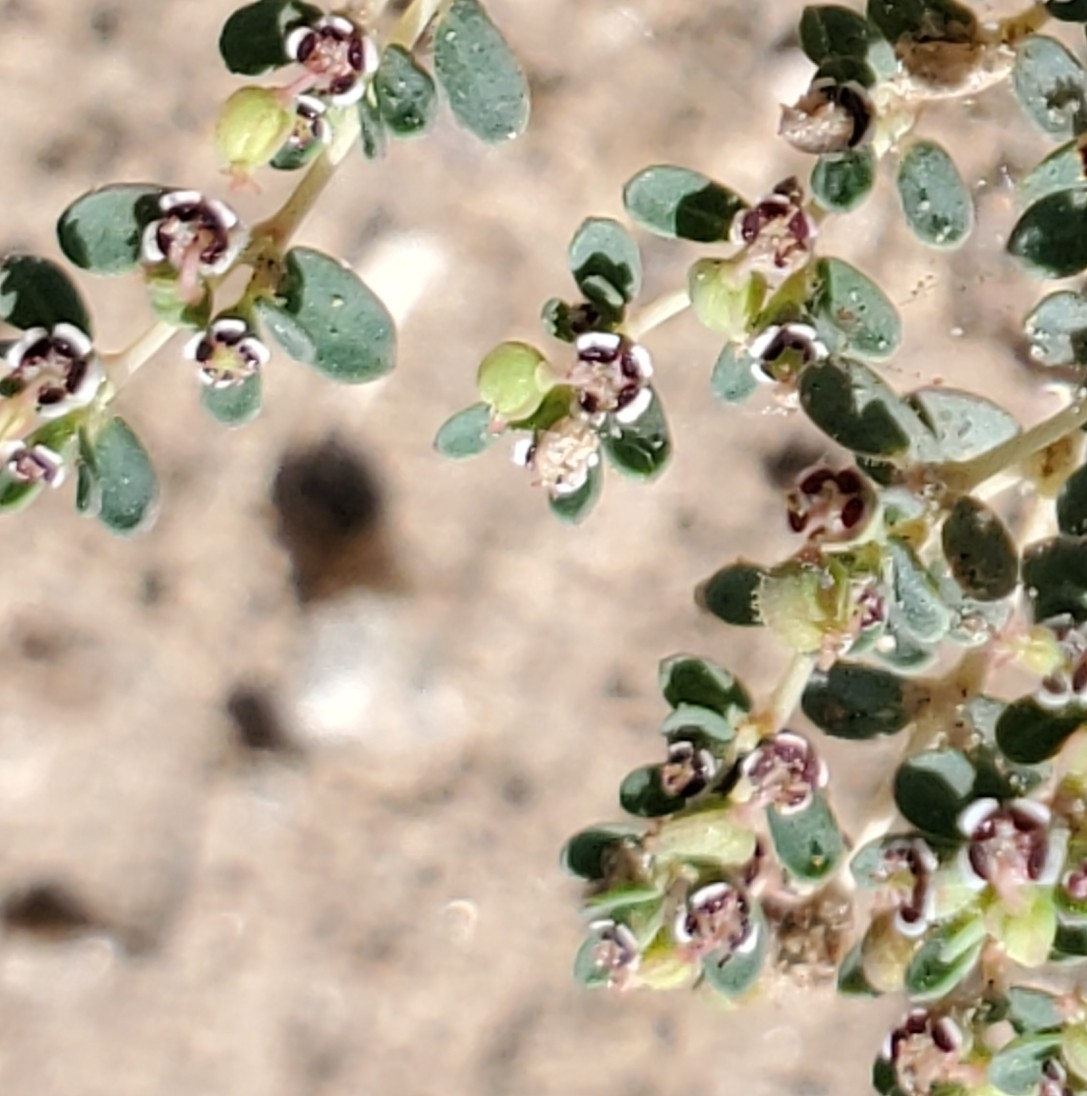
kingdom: Plantae
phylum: Tracheophyta
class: Magnoliopsida
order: Malpighiales
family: Euphorbiaceae
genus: Euphorbia
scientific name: Euphorbia polycarpa
